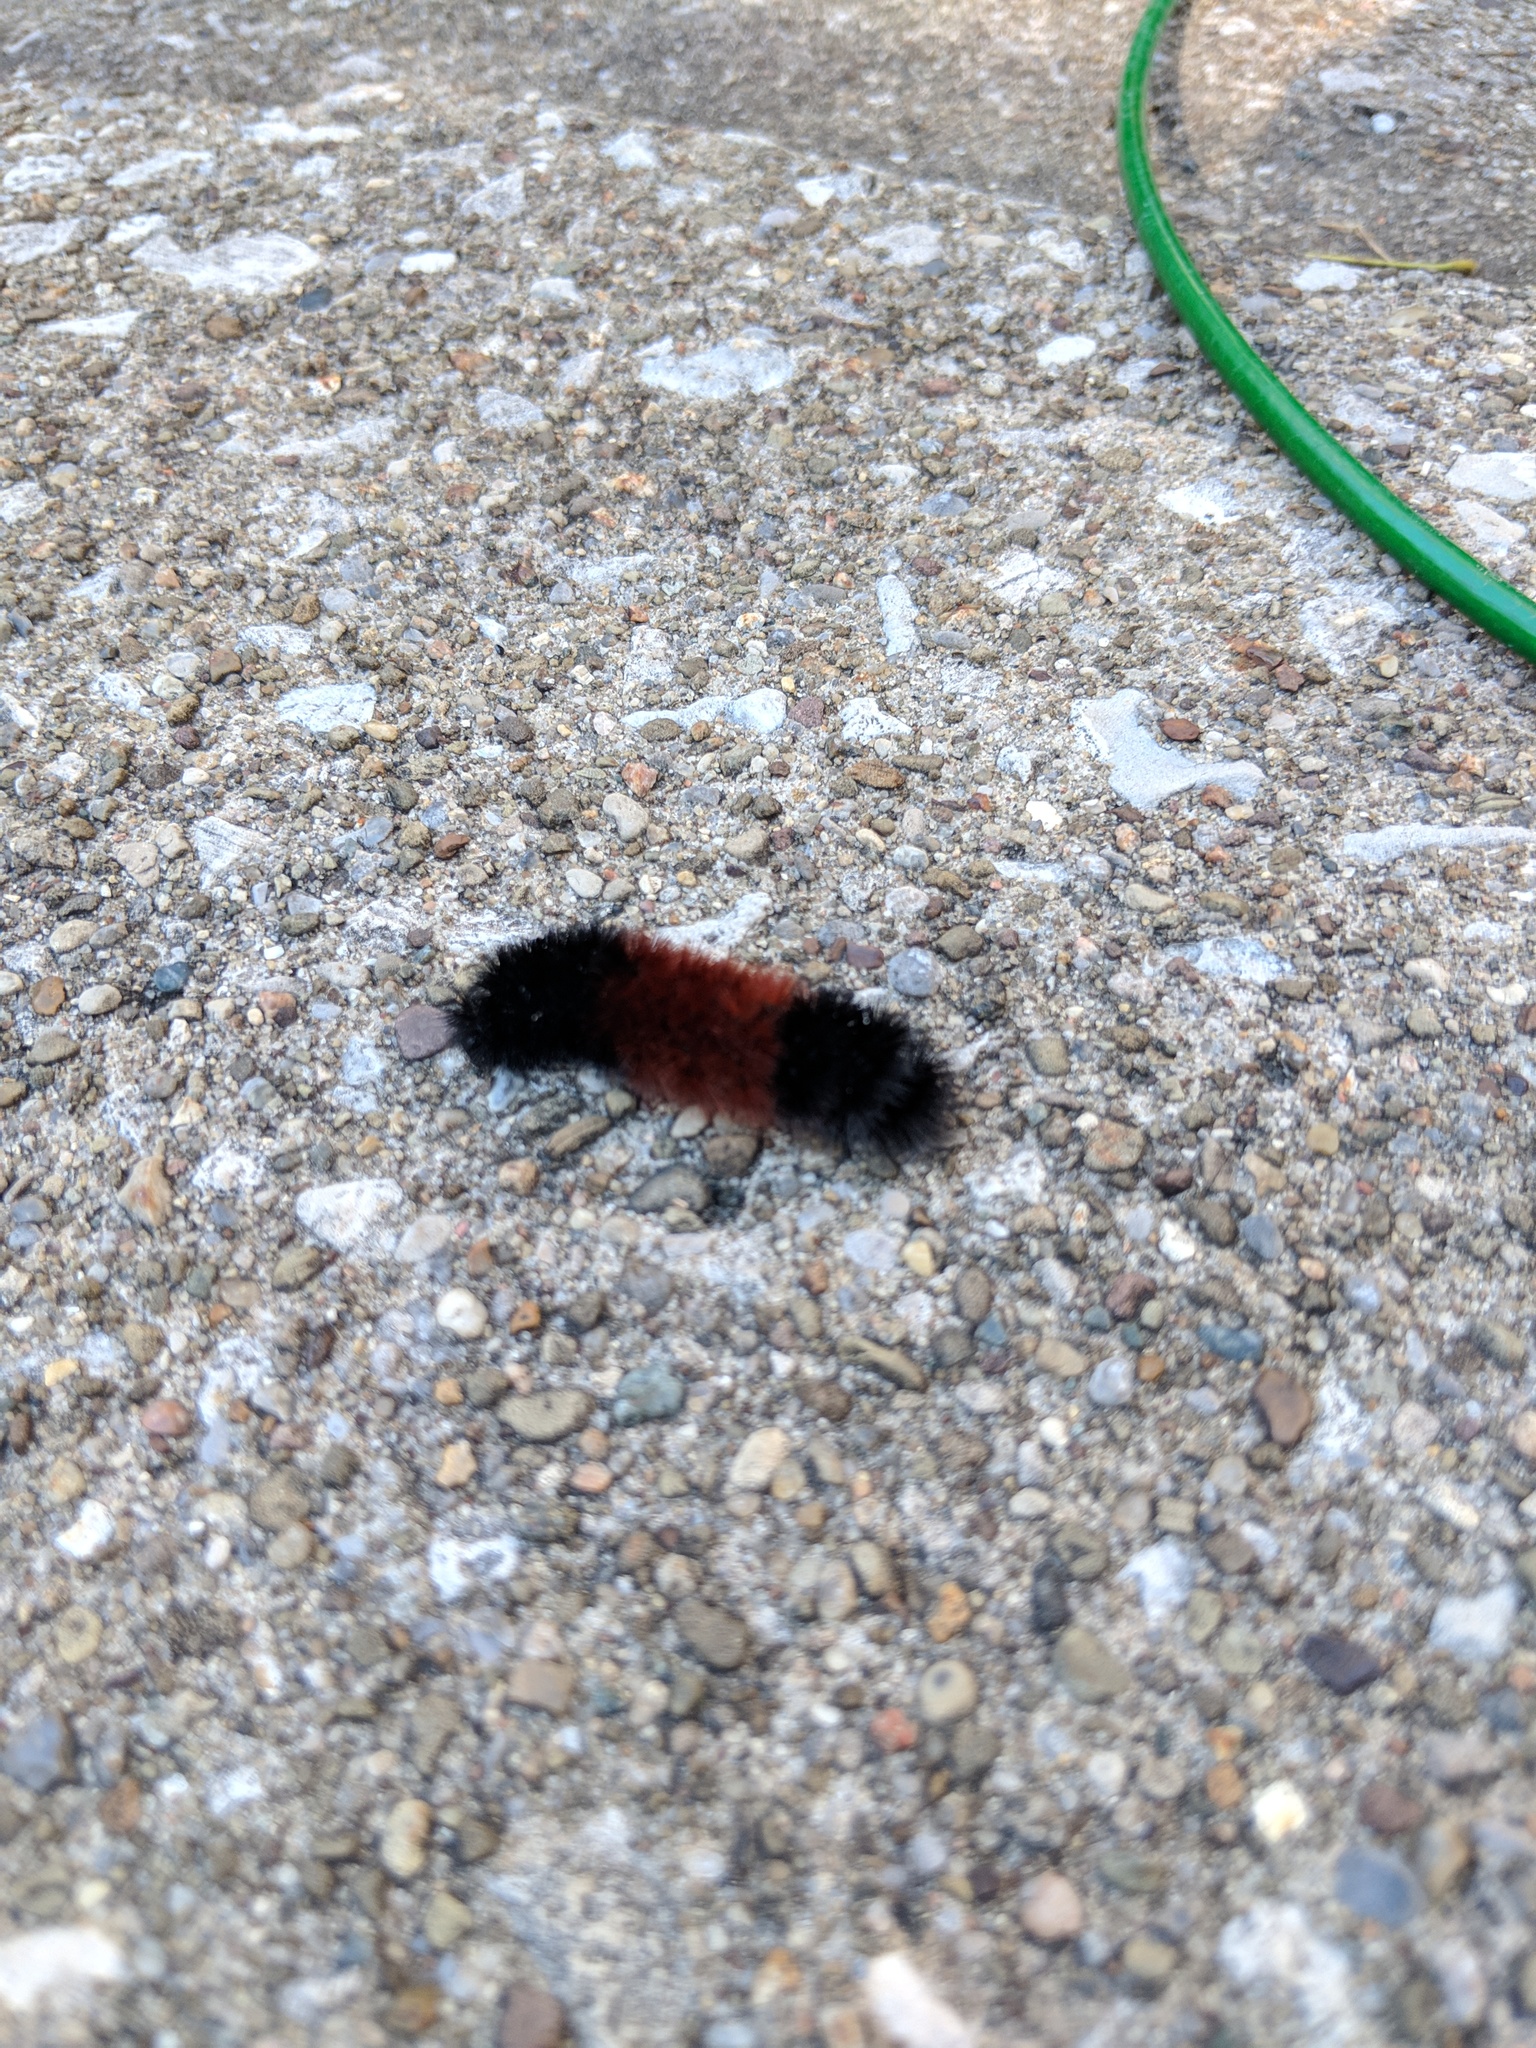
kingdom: Animalia
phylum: Arthropoda
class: Insecta
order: Lepidoptera
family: Erebidae
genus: Pyrrharctia
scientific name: Pyrrharctia isabella
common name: Isabella tiger moth
